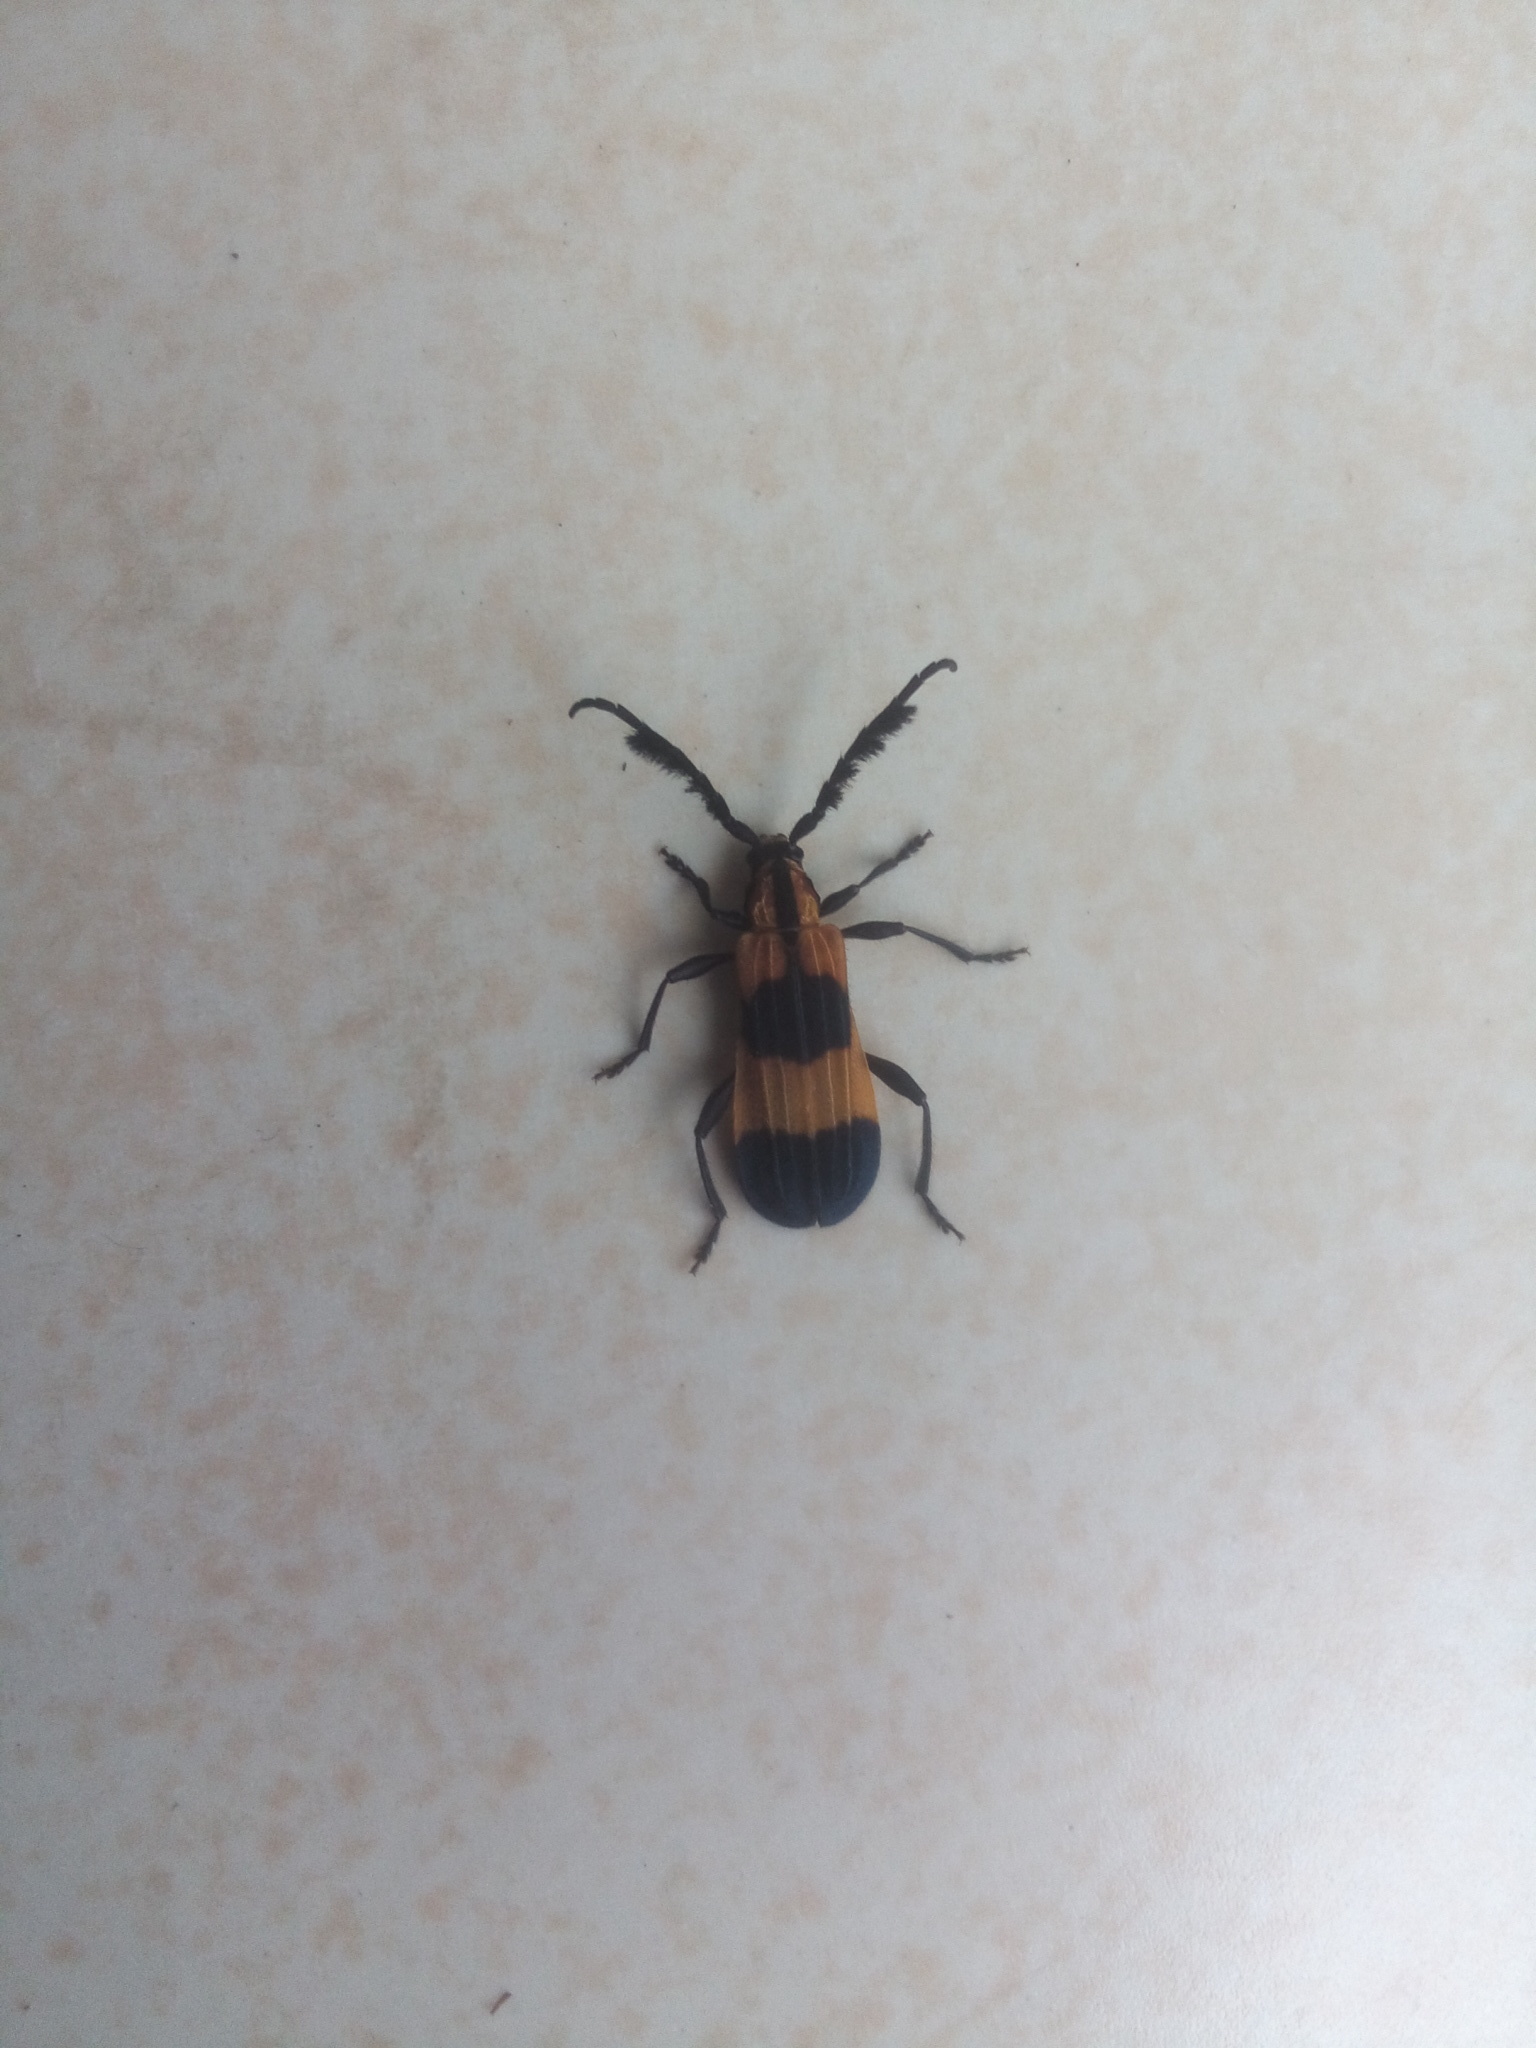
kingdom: Animalia
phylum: Arthropoda
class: Insecta
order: Coleoptera
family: Cerambycidae
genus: Pteroplatus
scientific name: Pteroplatus quadriscopulatus
